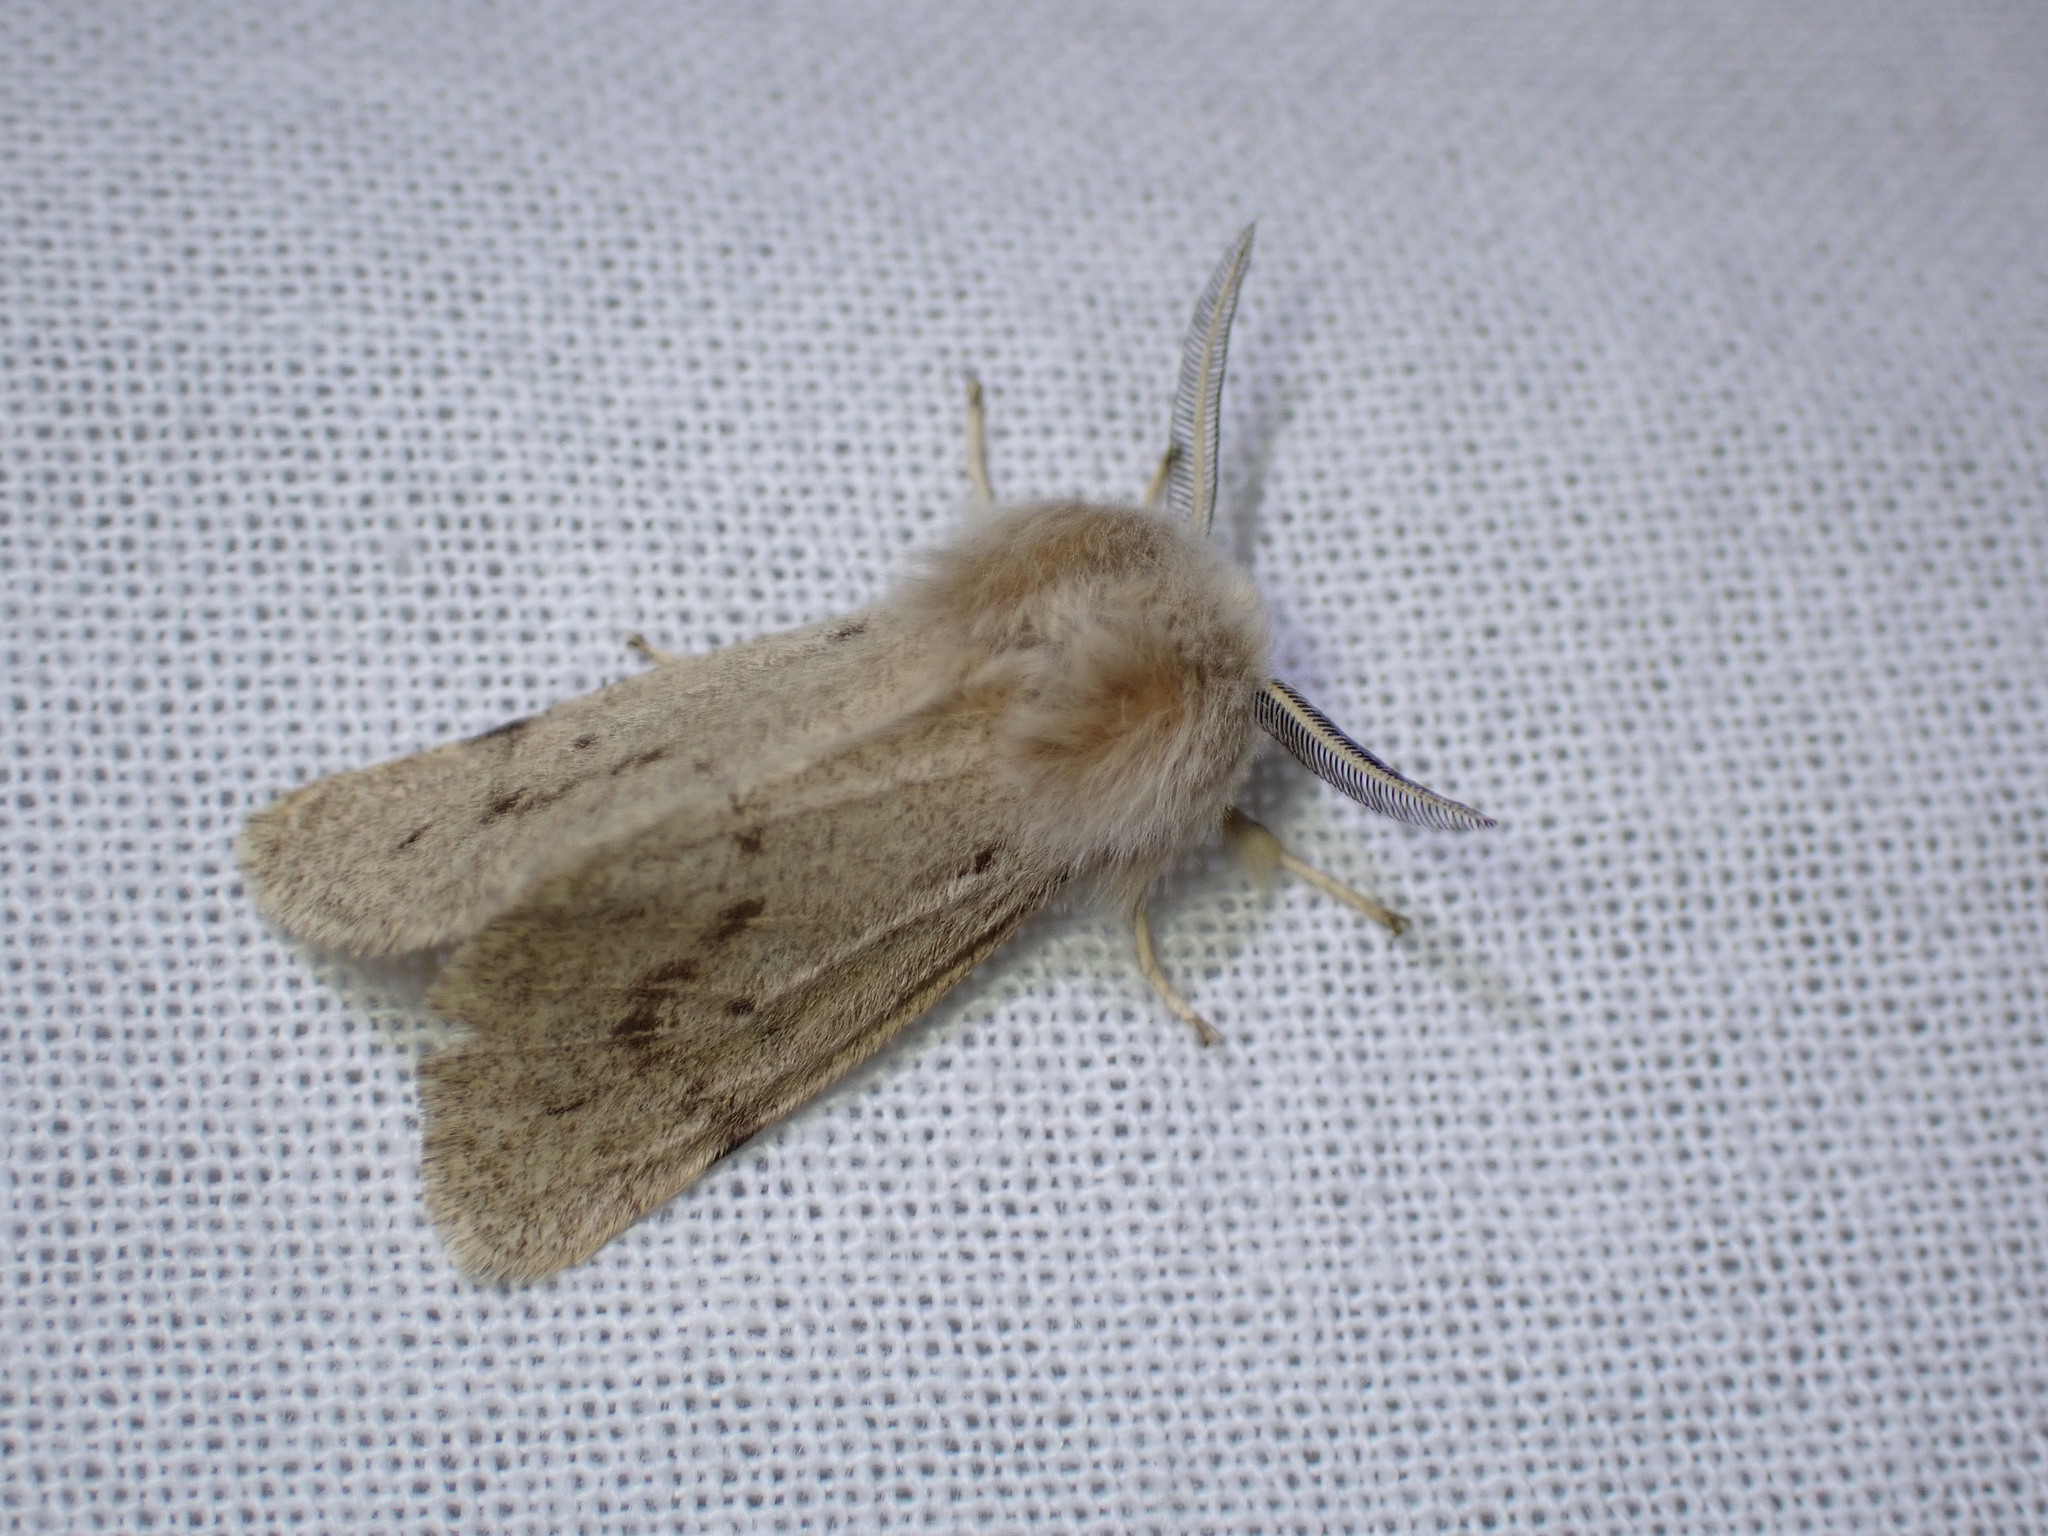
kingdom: Animalia
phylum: Arthropoda
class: Insecta
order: Lepidoptera
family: Erebidae
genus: Spilosoma
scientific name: Spilosoma vagans
